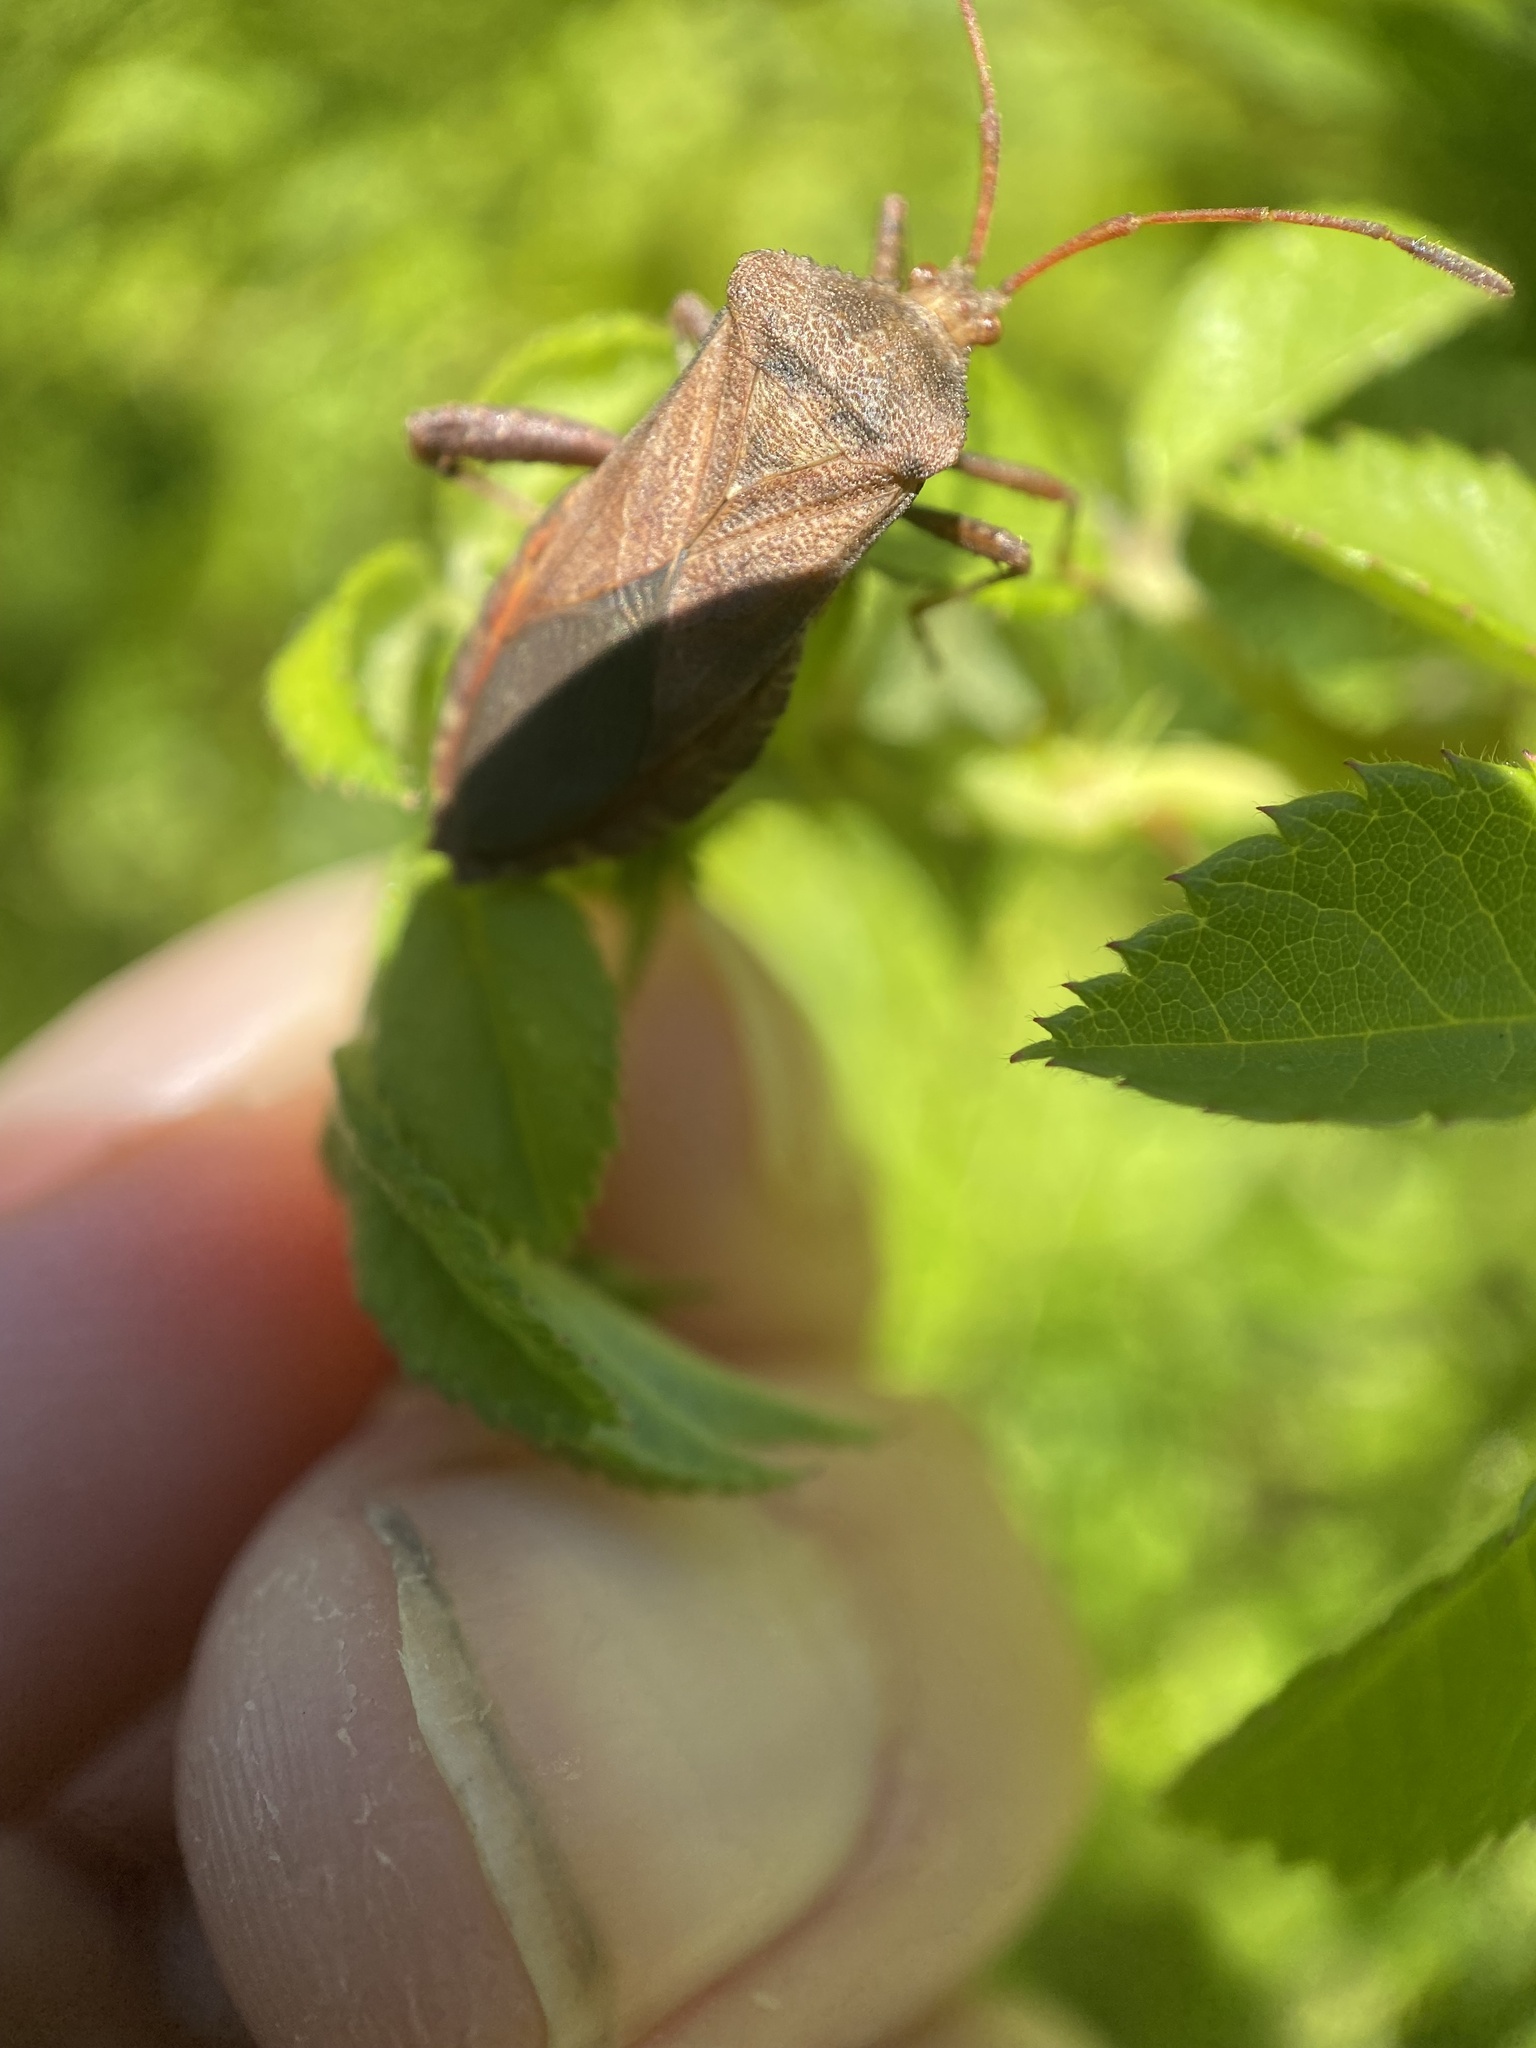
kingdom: Animalia
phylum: Arthropoda
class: Insecta
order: Hemiptera
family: Coreidae
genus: Euthochtha
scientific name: Euthochtha galeator
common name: Helmeted squash bug
